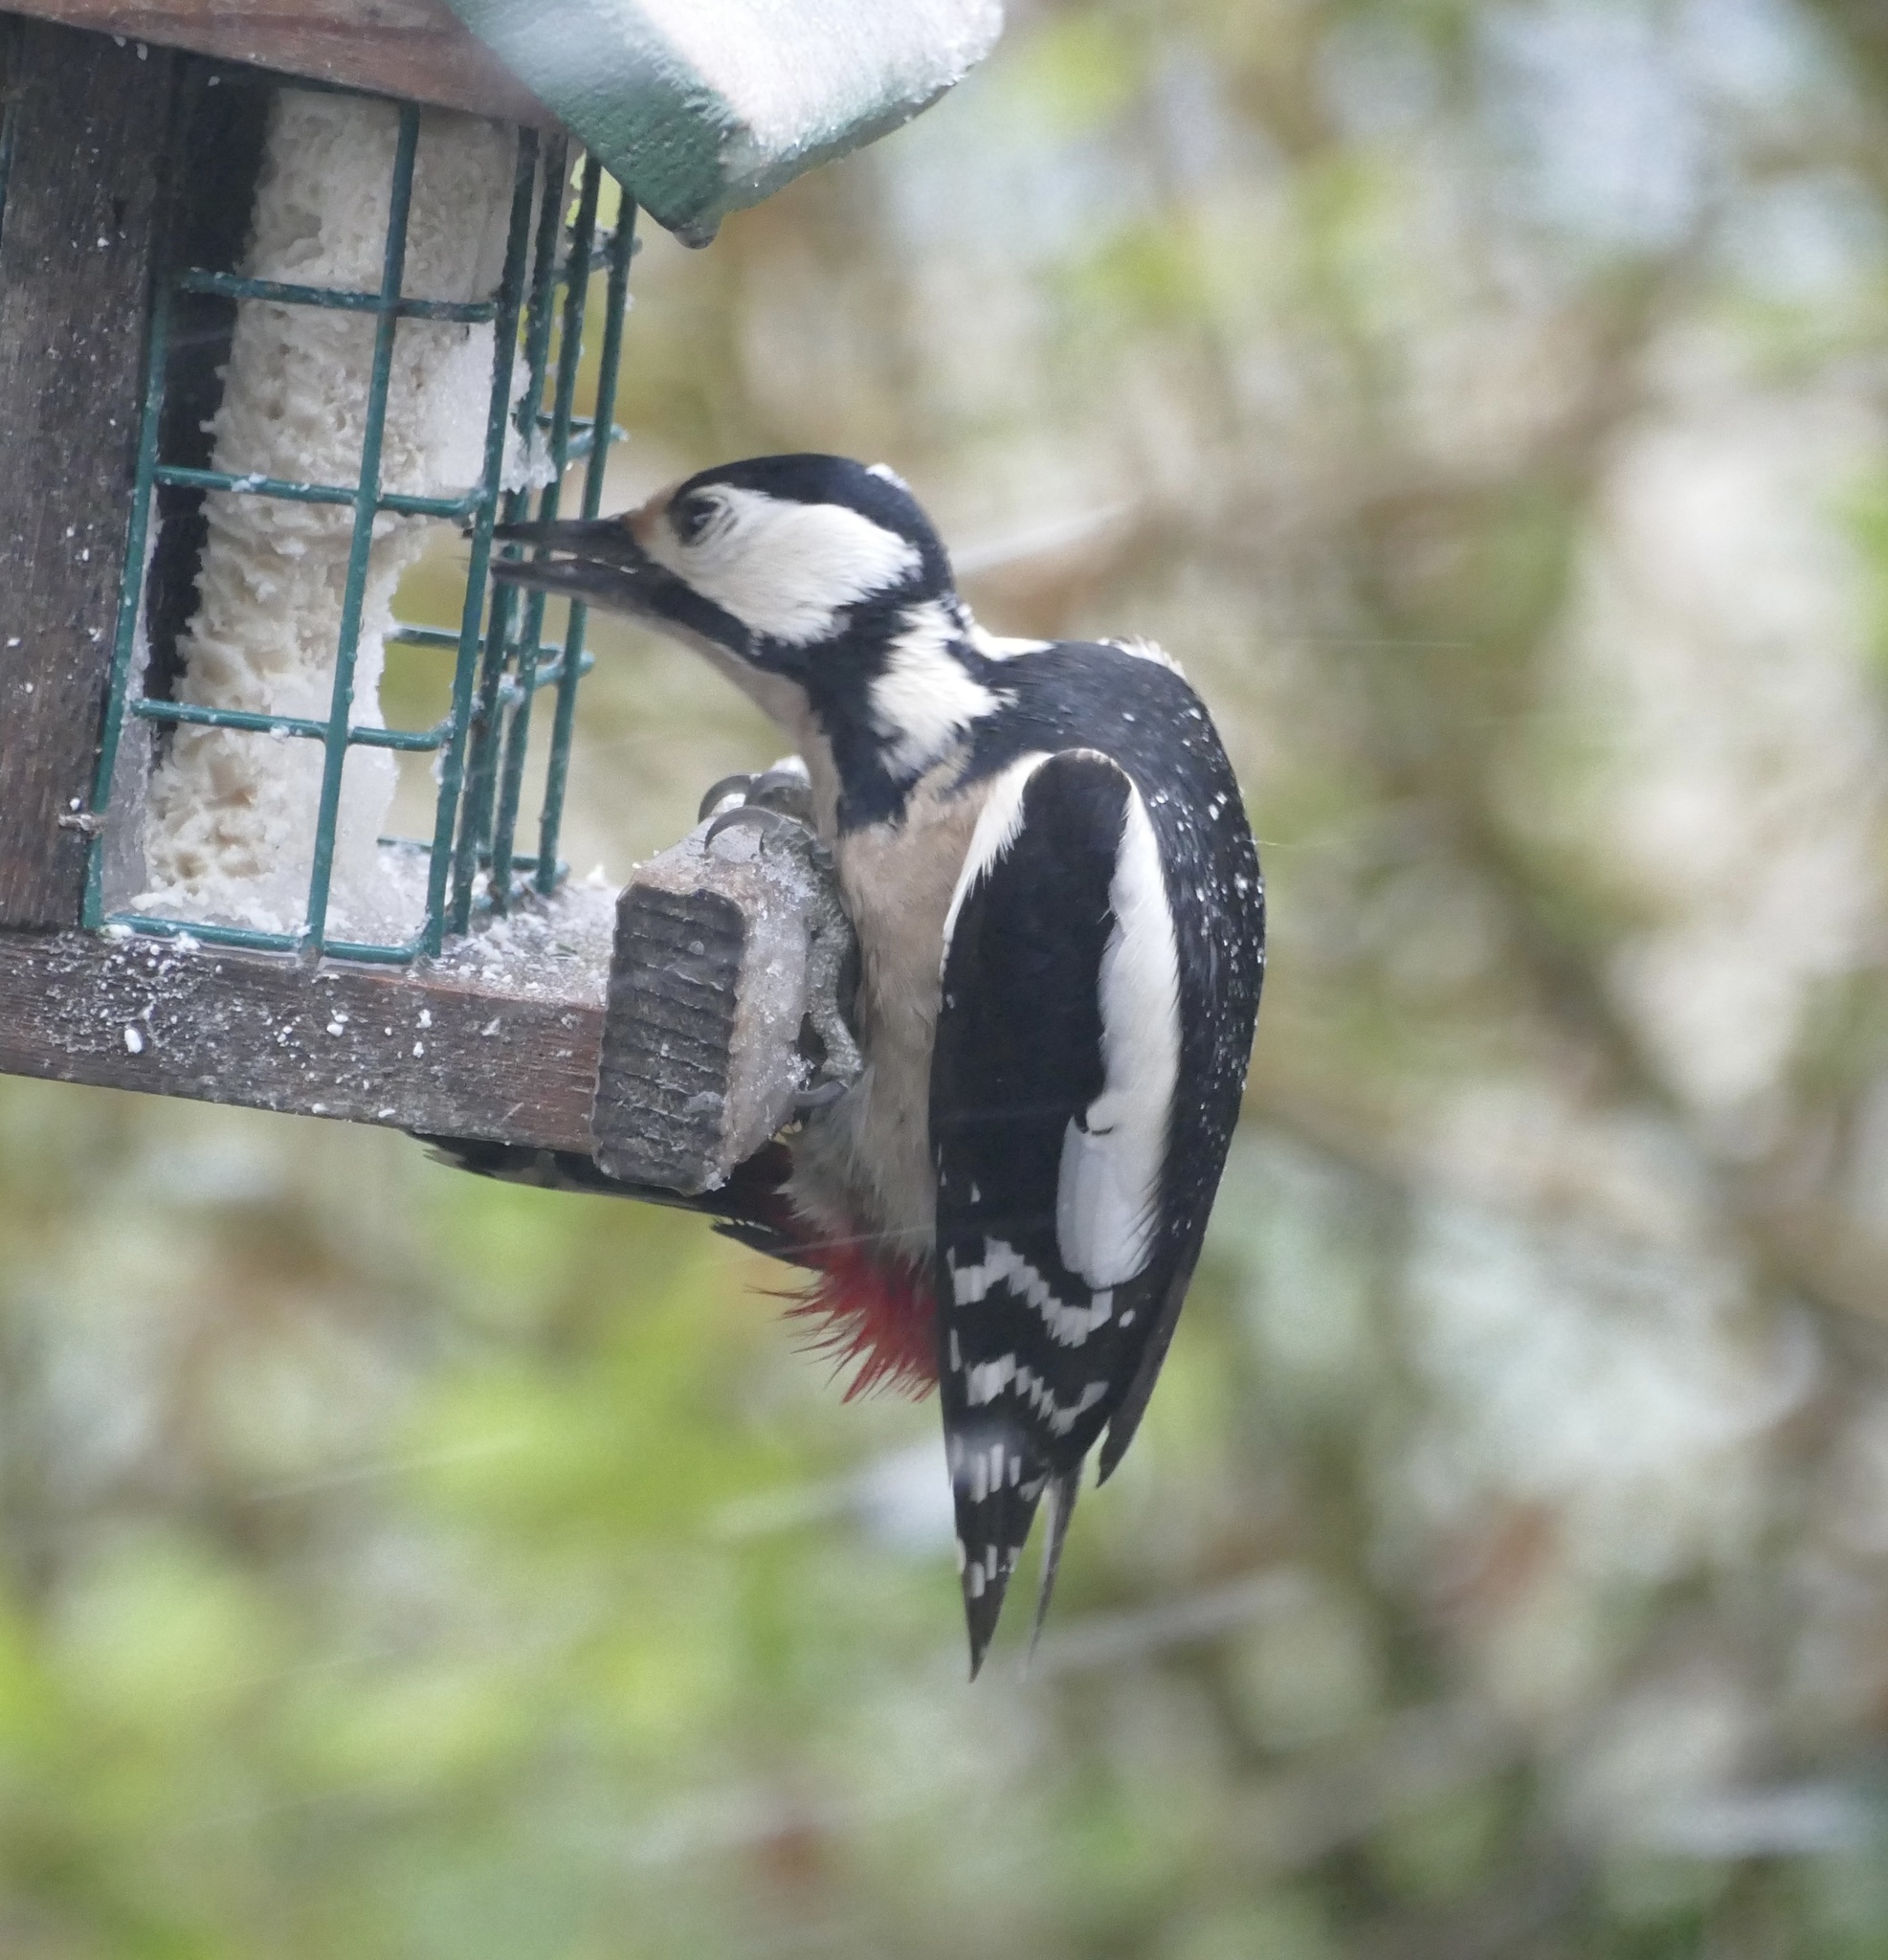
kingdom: Animalia
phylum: Chordata
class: Aves
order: Piciformes
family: Picidae
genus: Dendrocopos
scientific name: Dendrocopos major
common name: Great spotted woodpecker
